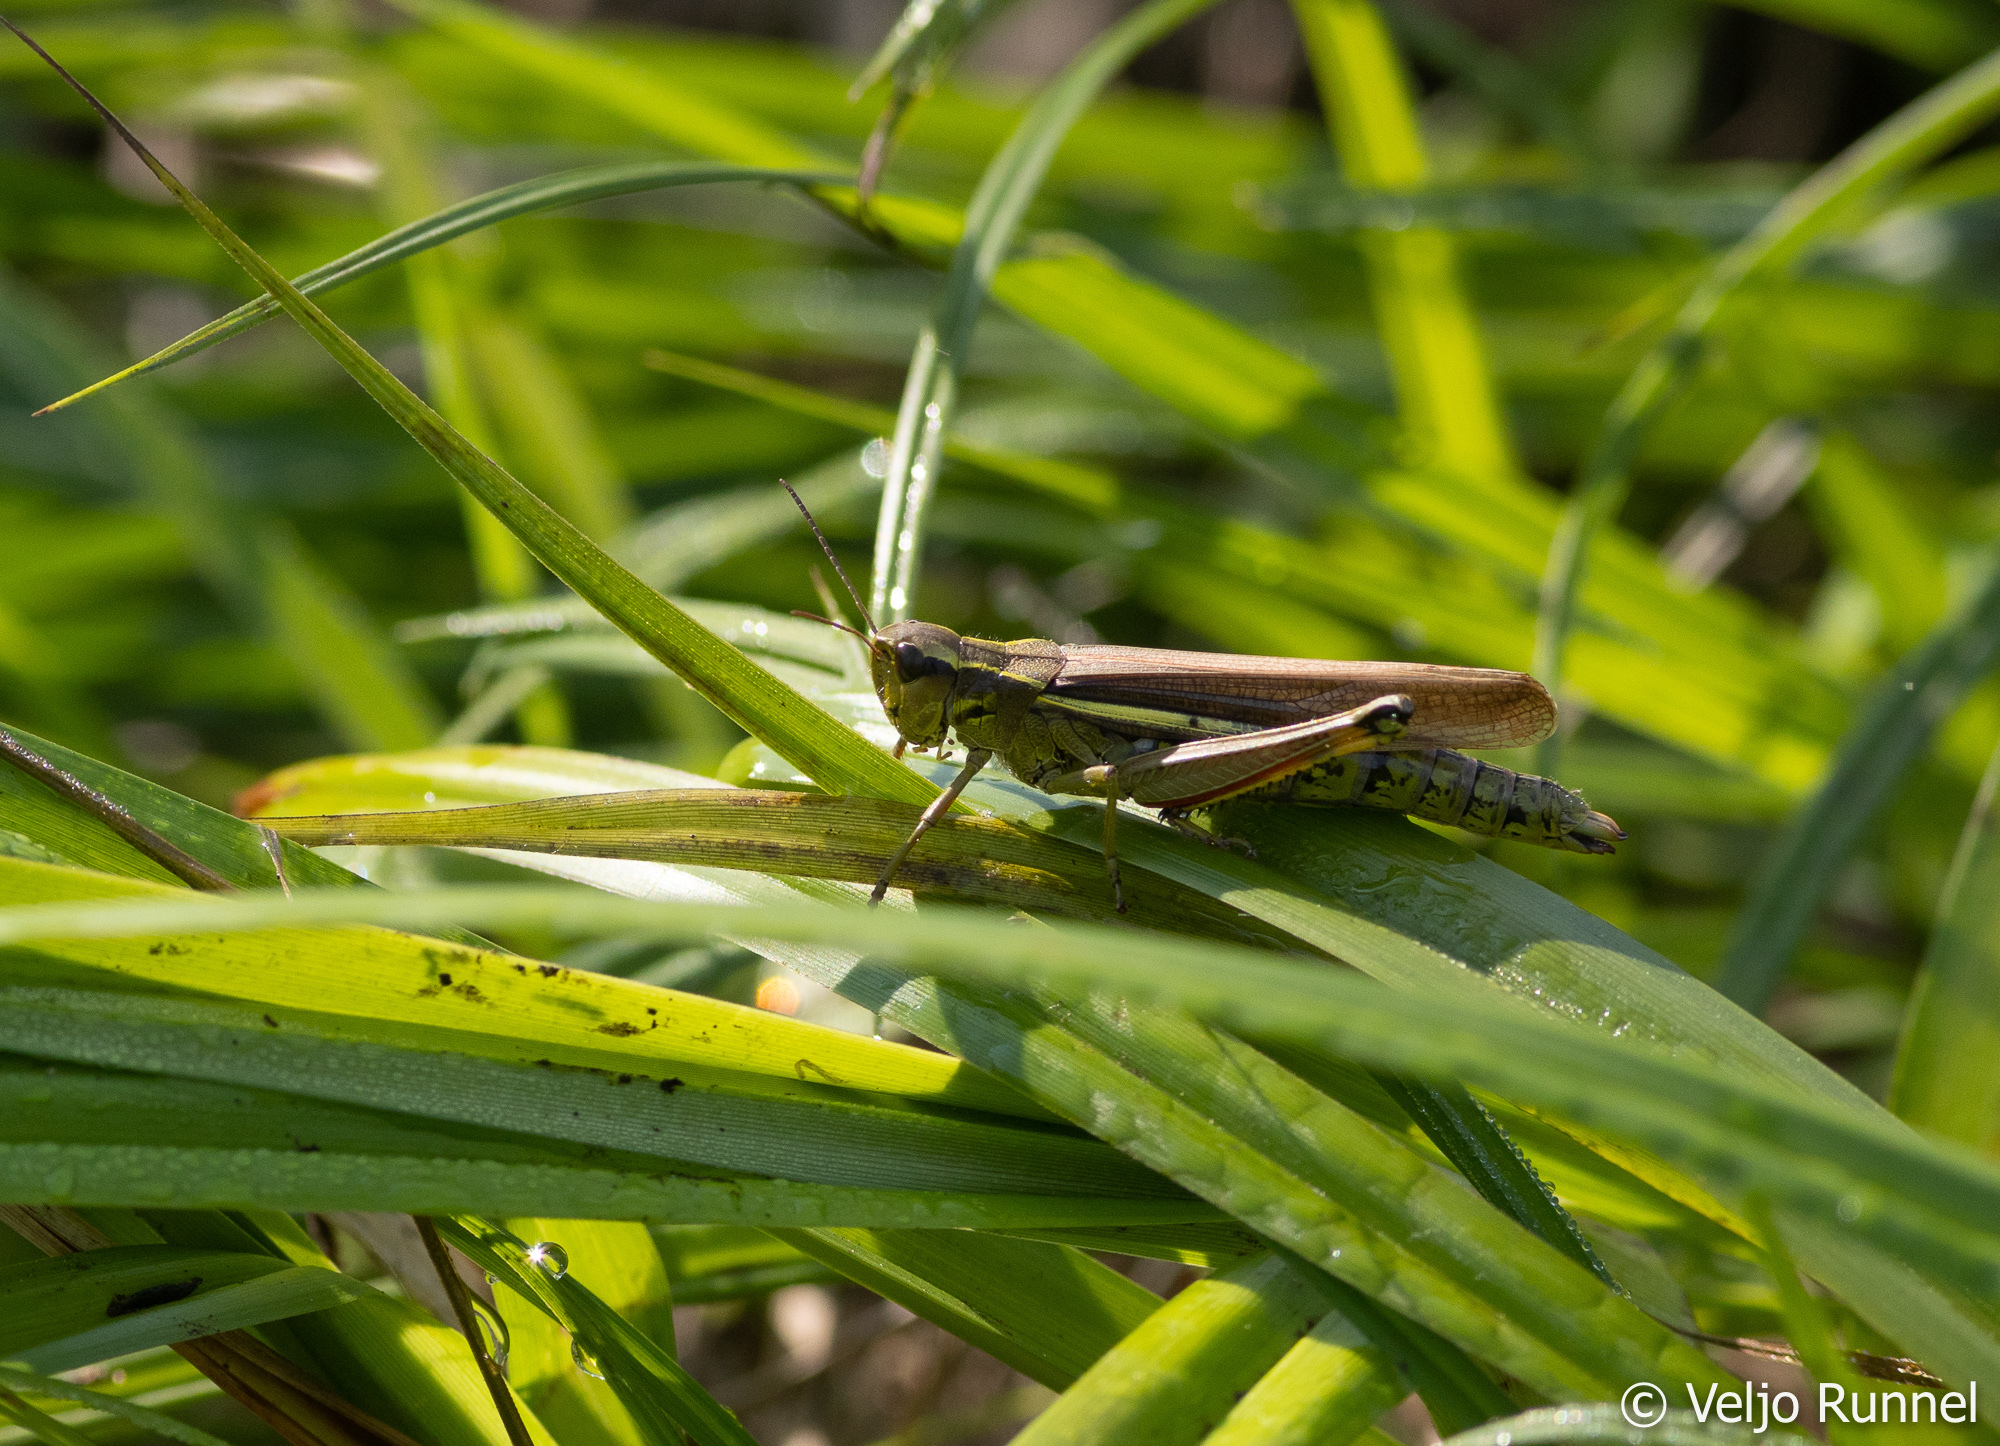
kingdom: Animalia
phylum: Arthropoda
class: Insecta
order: Orthoptera
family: Acrididae
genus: Stethophyma
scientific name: Stethophyma grossum
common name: Large marsh grasshopper
